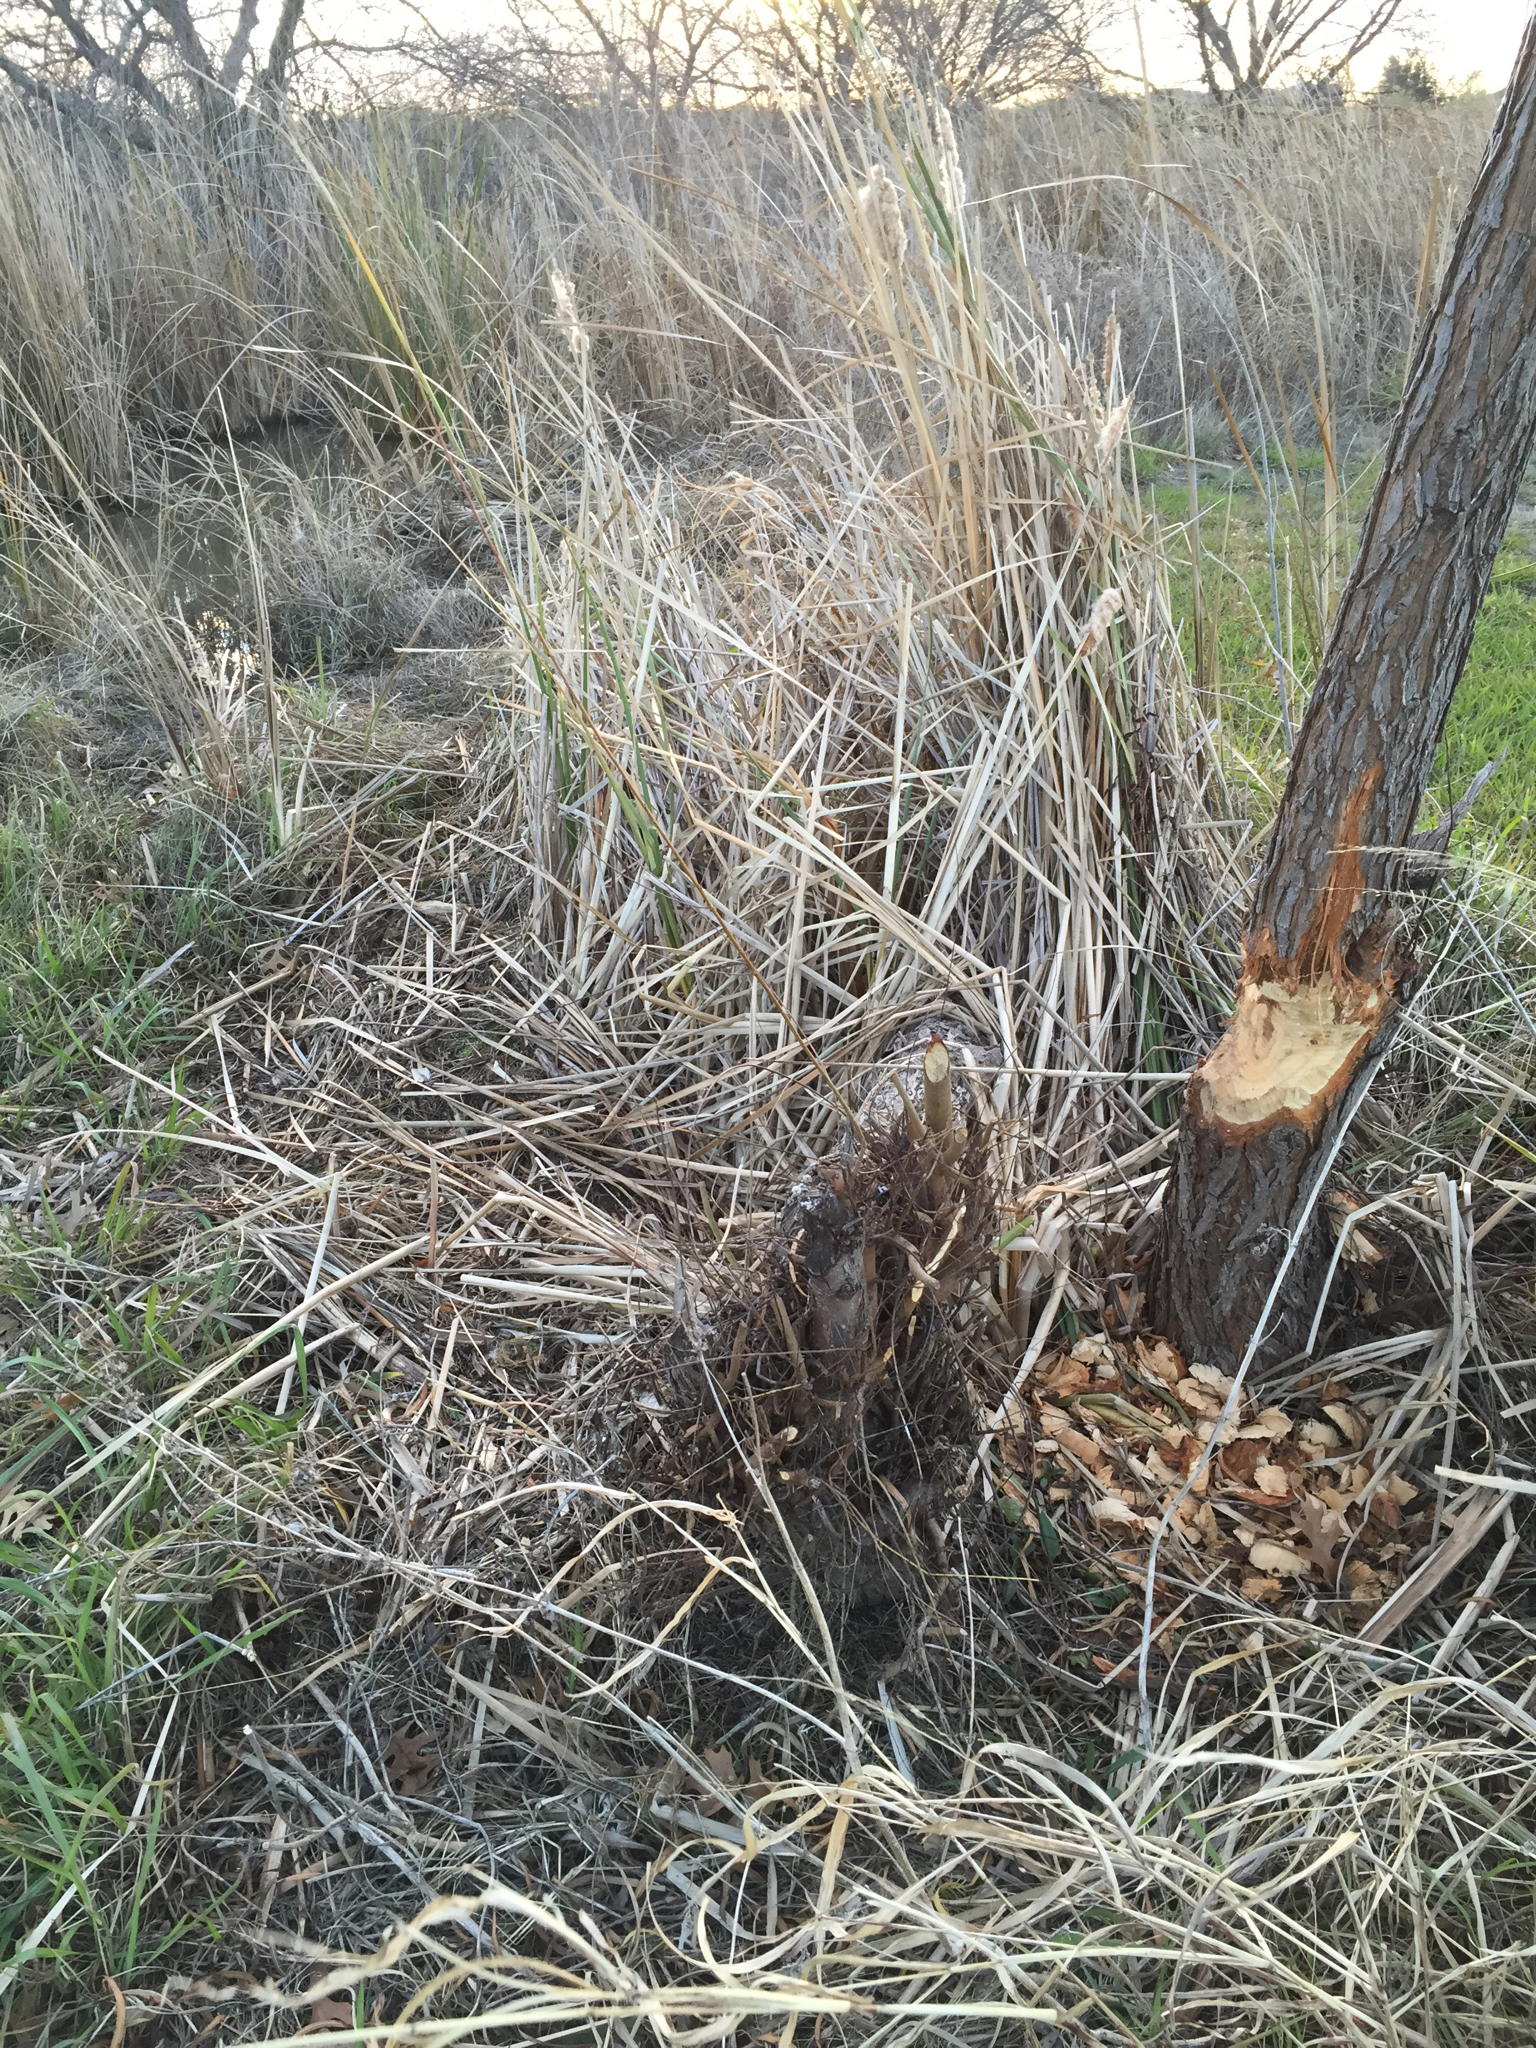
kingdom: Animalia
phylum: Chordata
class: Mammalia
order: Rodentia
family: Castoridae
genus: Castor
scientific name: Castor canadensis
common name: American beaver
